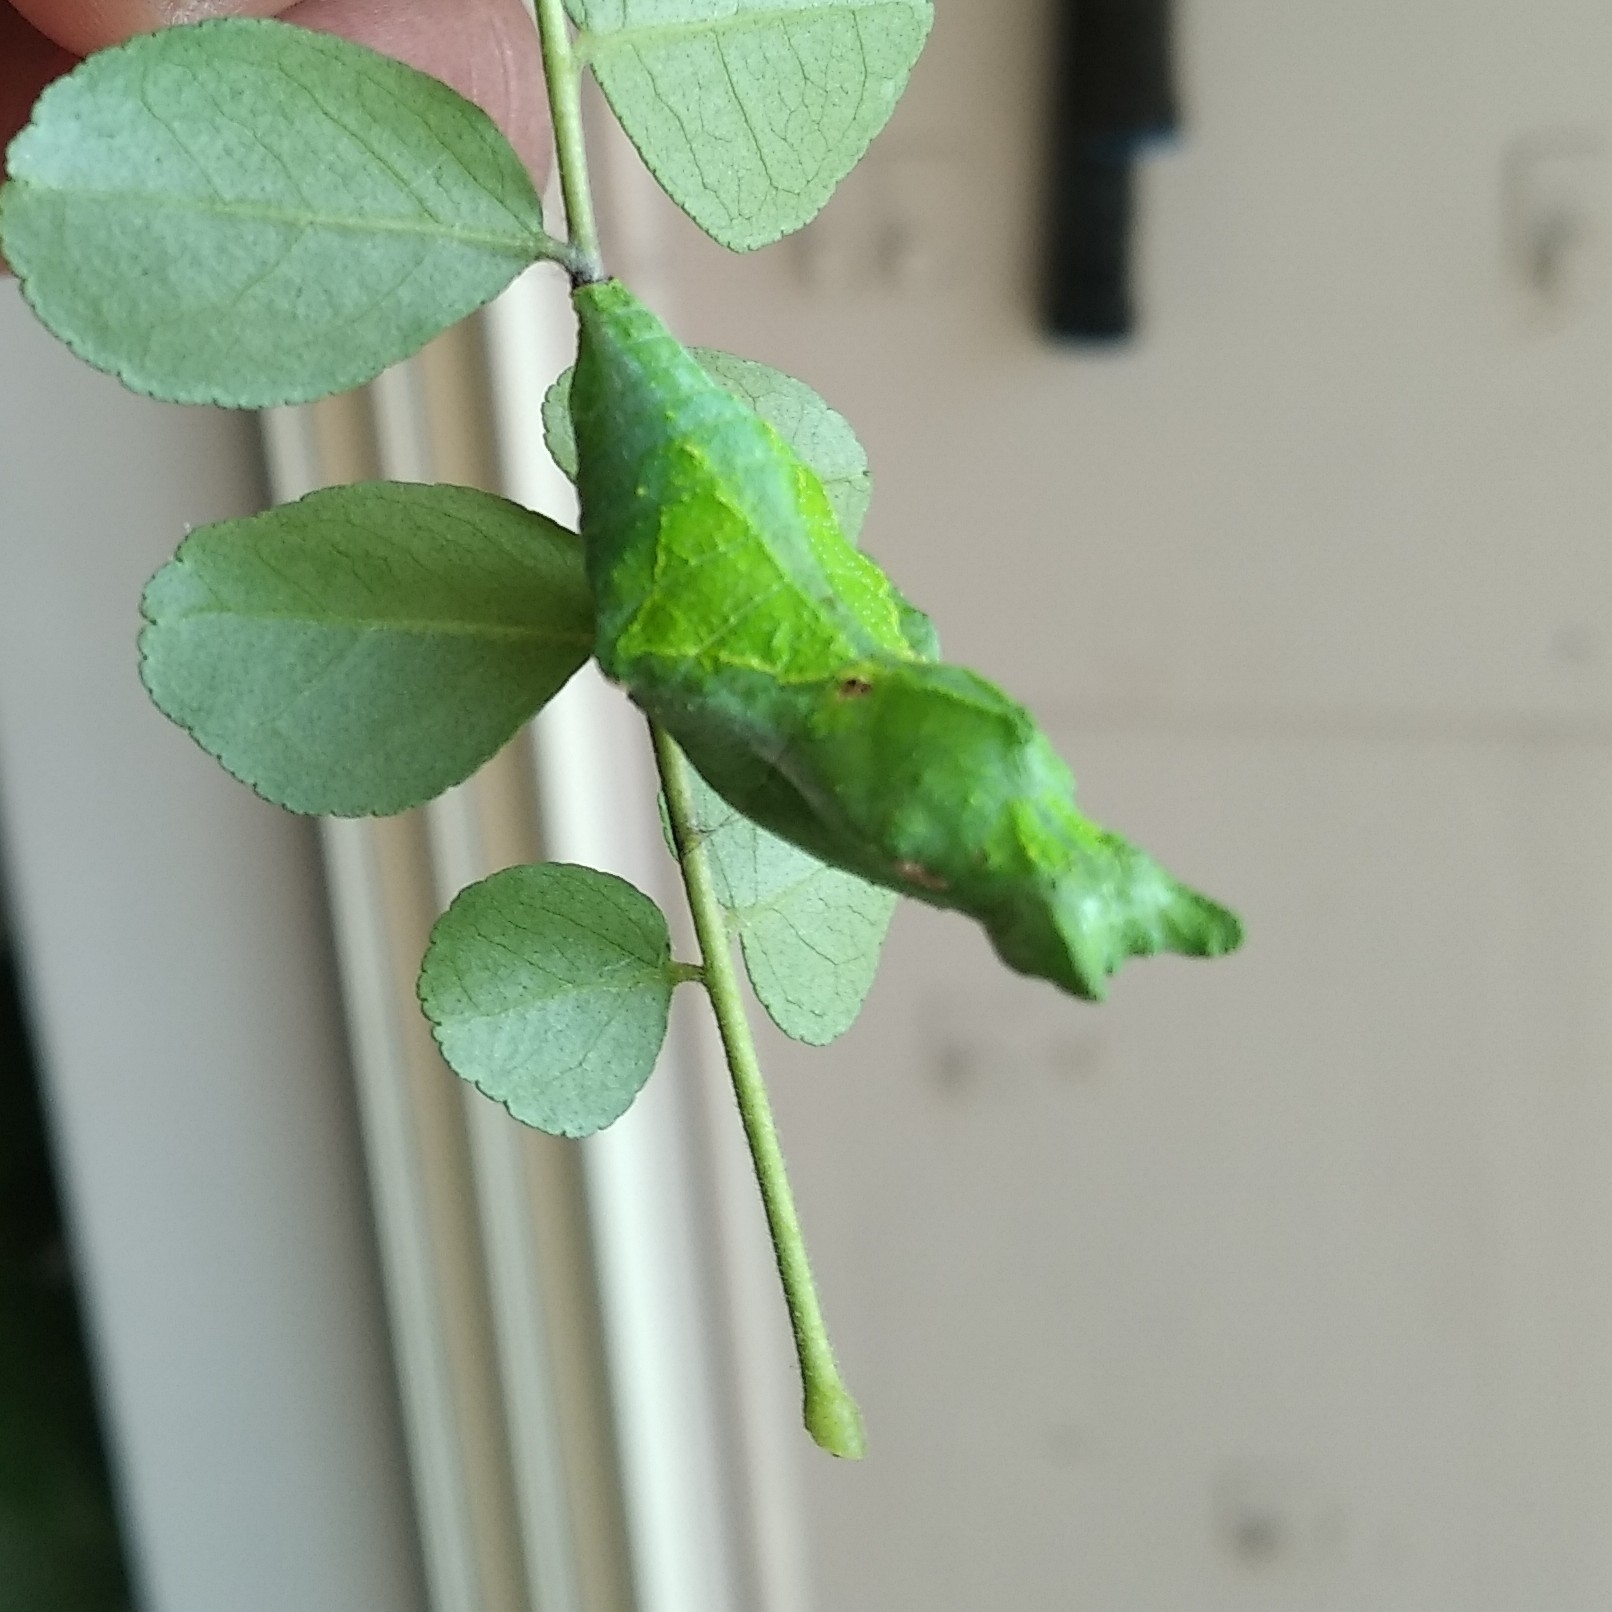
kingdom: Animalia
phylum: Arthropoda
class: Insecta
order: Lepidoptera
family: Papilionidae
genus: Papilio
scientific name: Papilio polytes
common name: Common mormon
